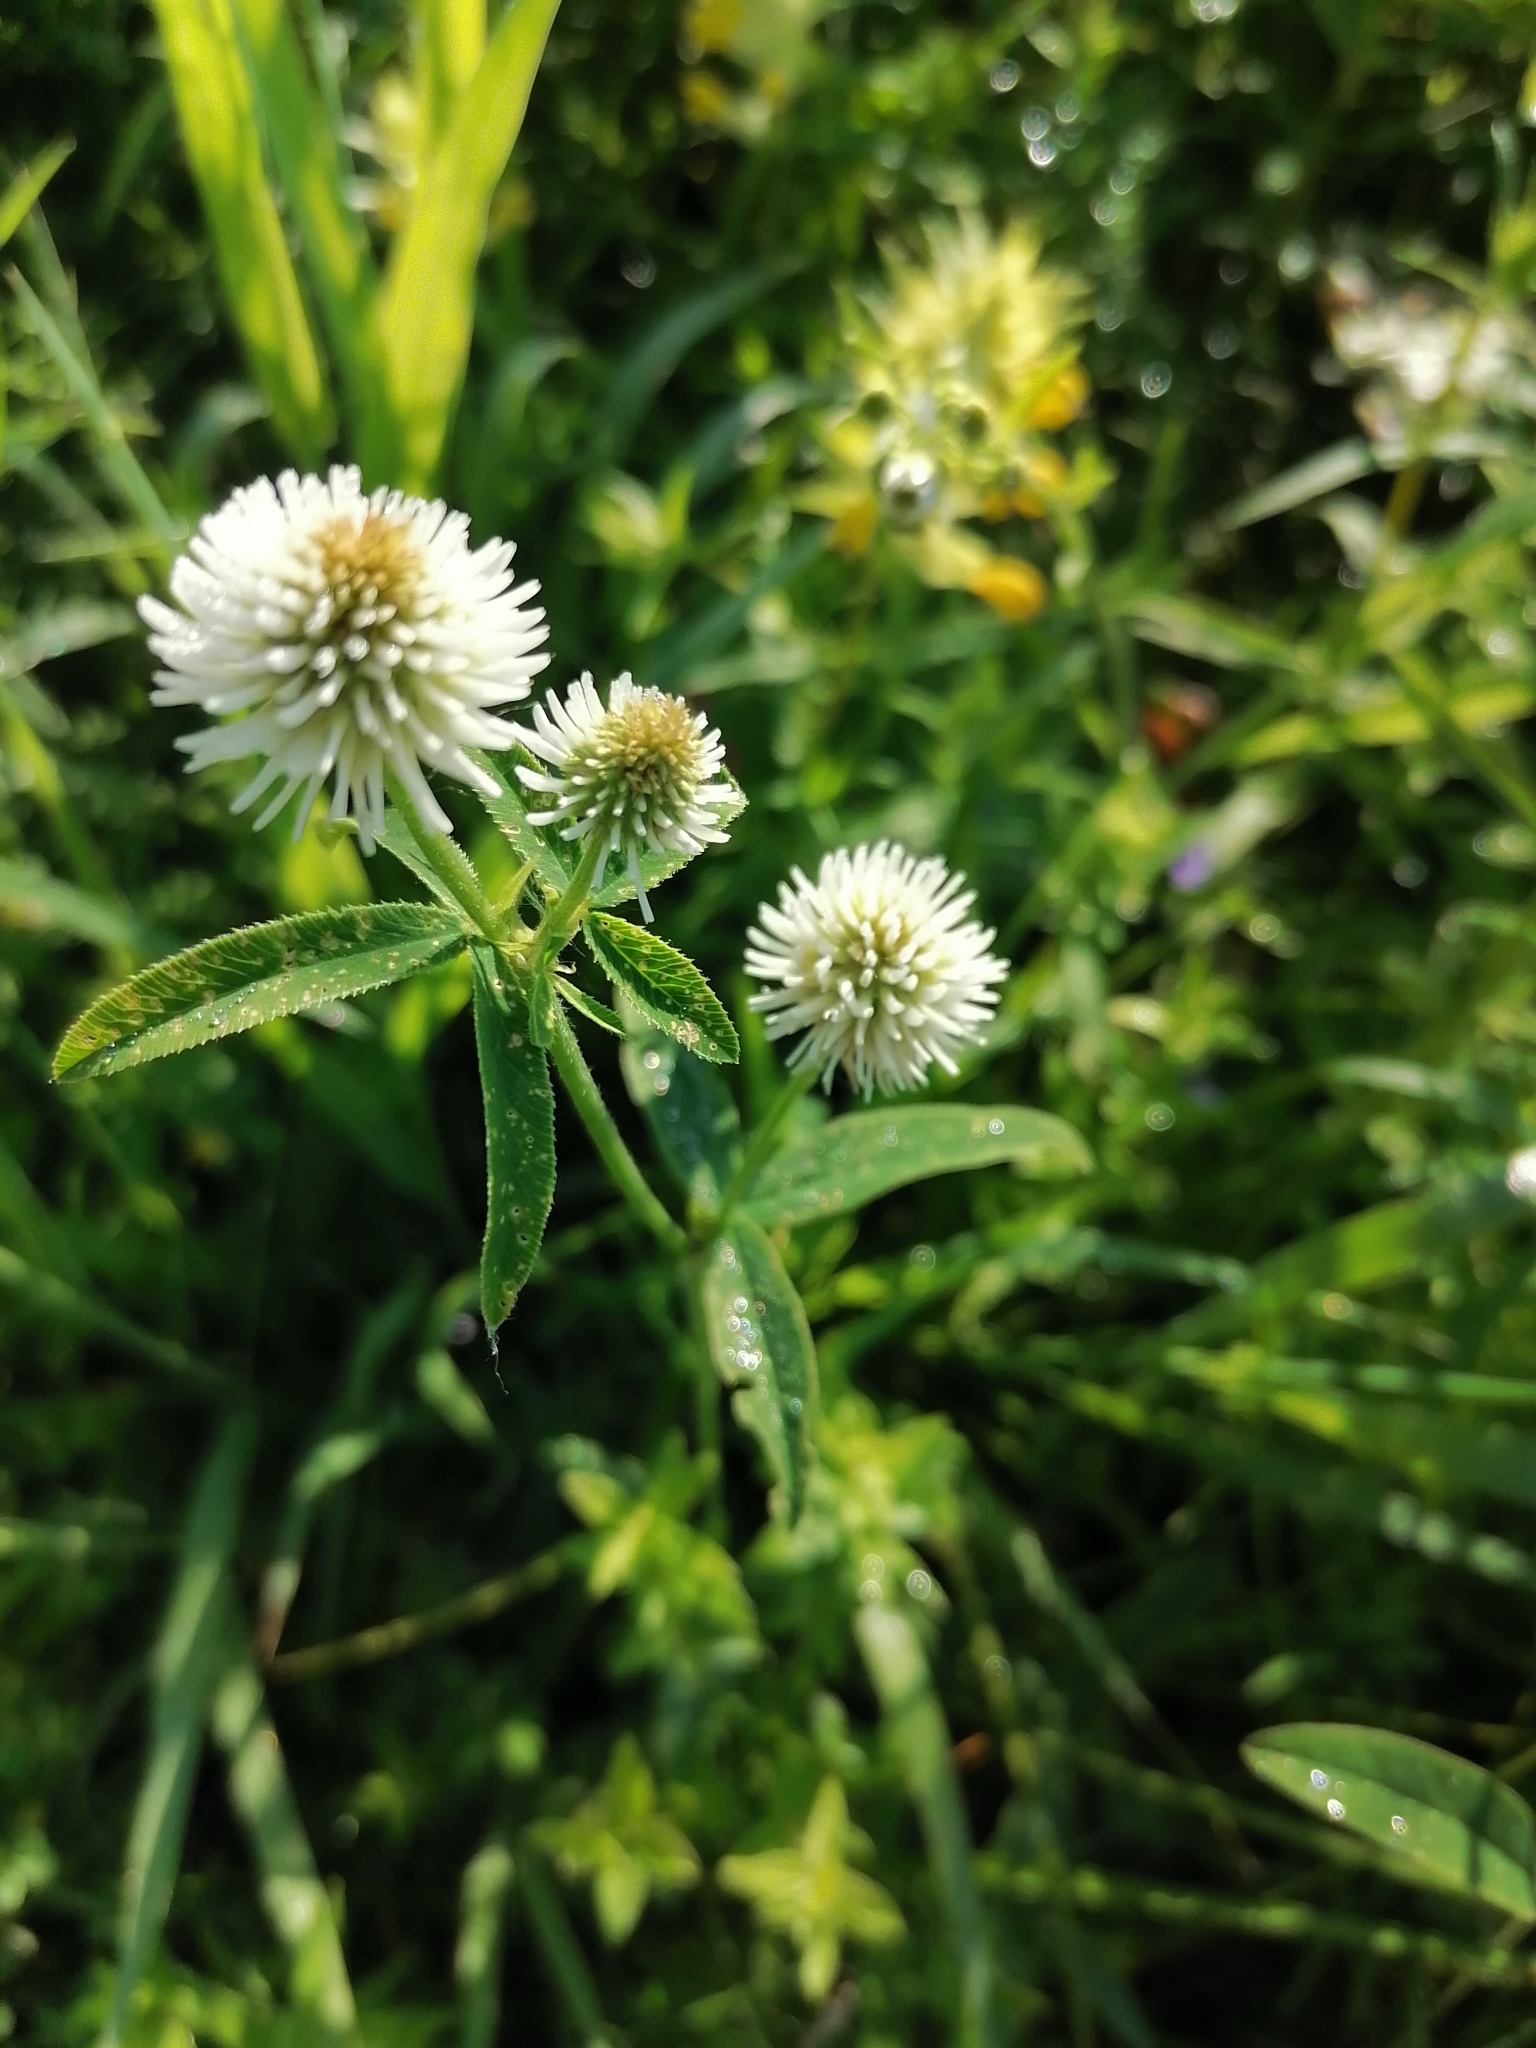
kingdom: Plantae
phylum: Tracheophyta
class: Magnoliopsida
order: Fabales
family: Fabaceae
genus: Trifolium
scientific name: Trifolium montanum
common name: Mountain clover
